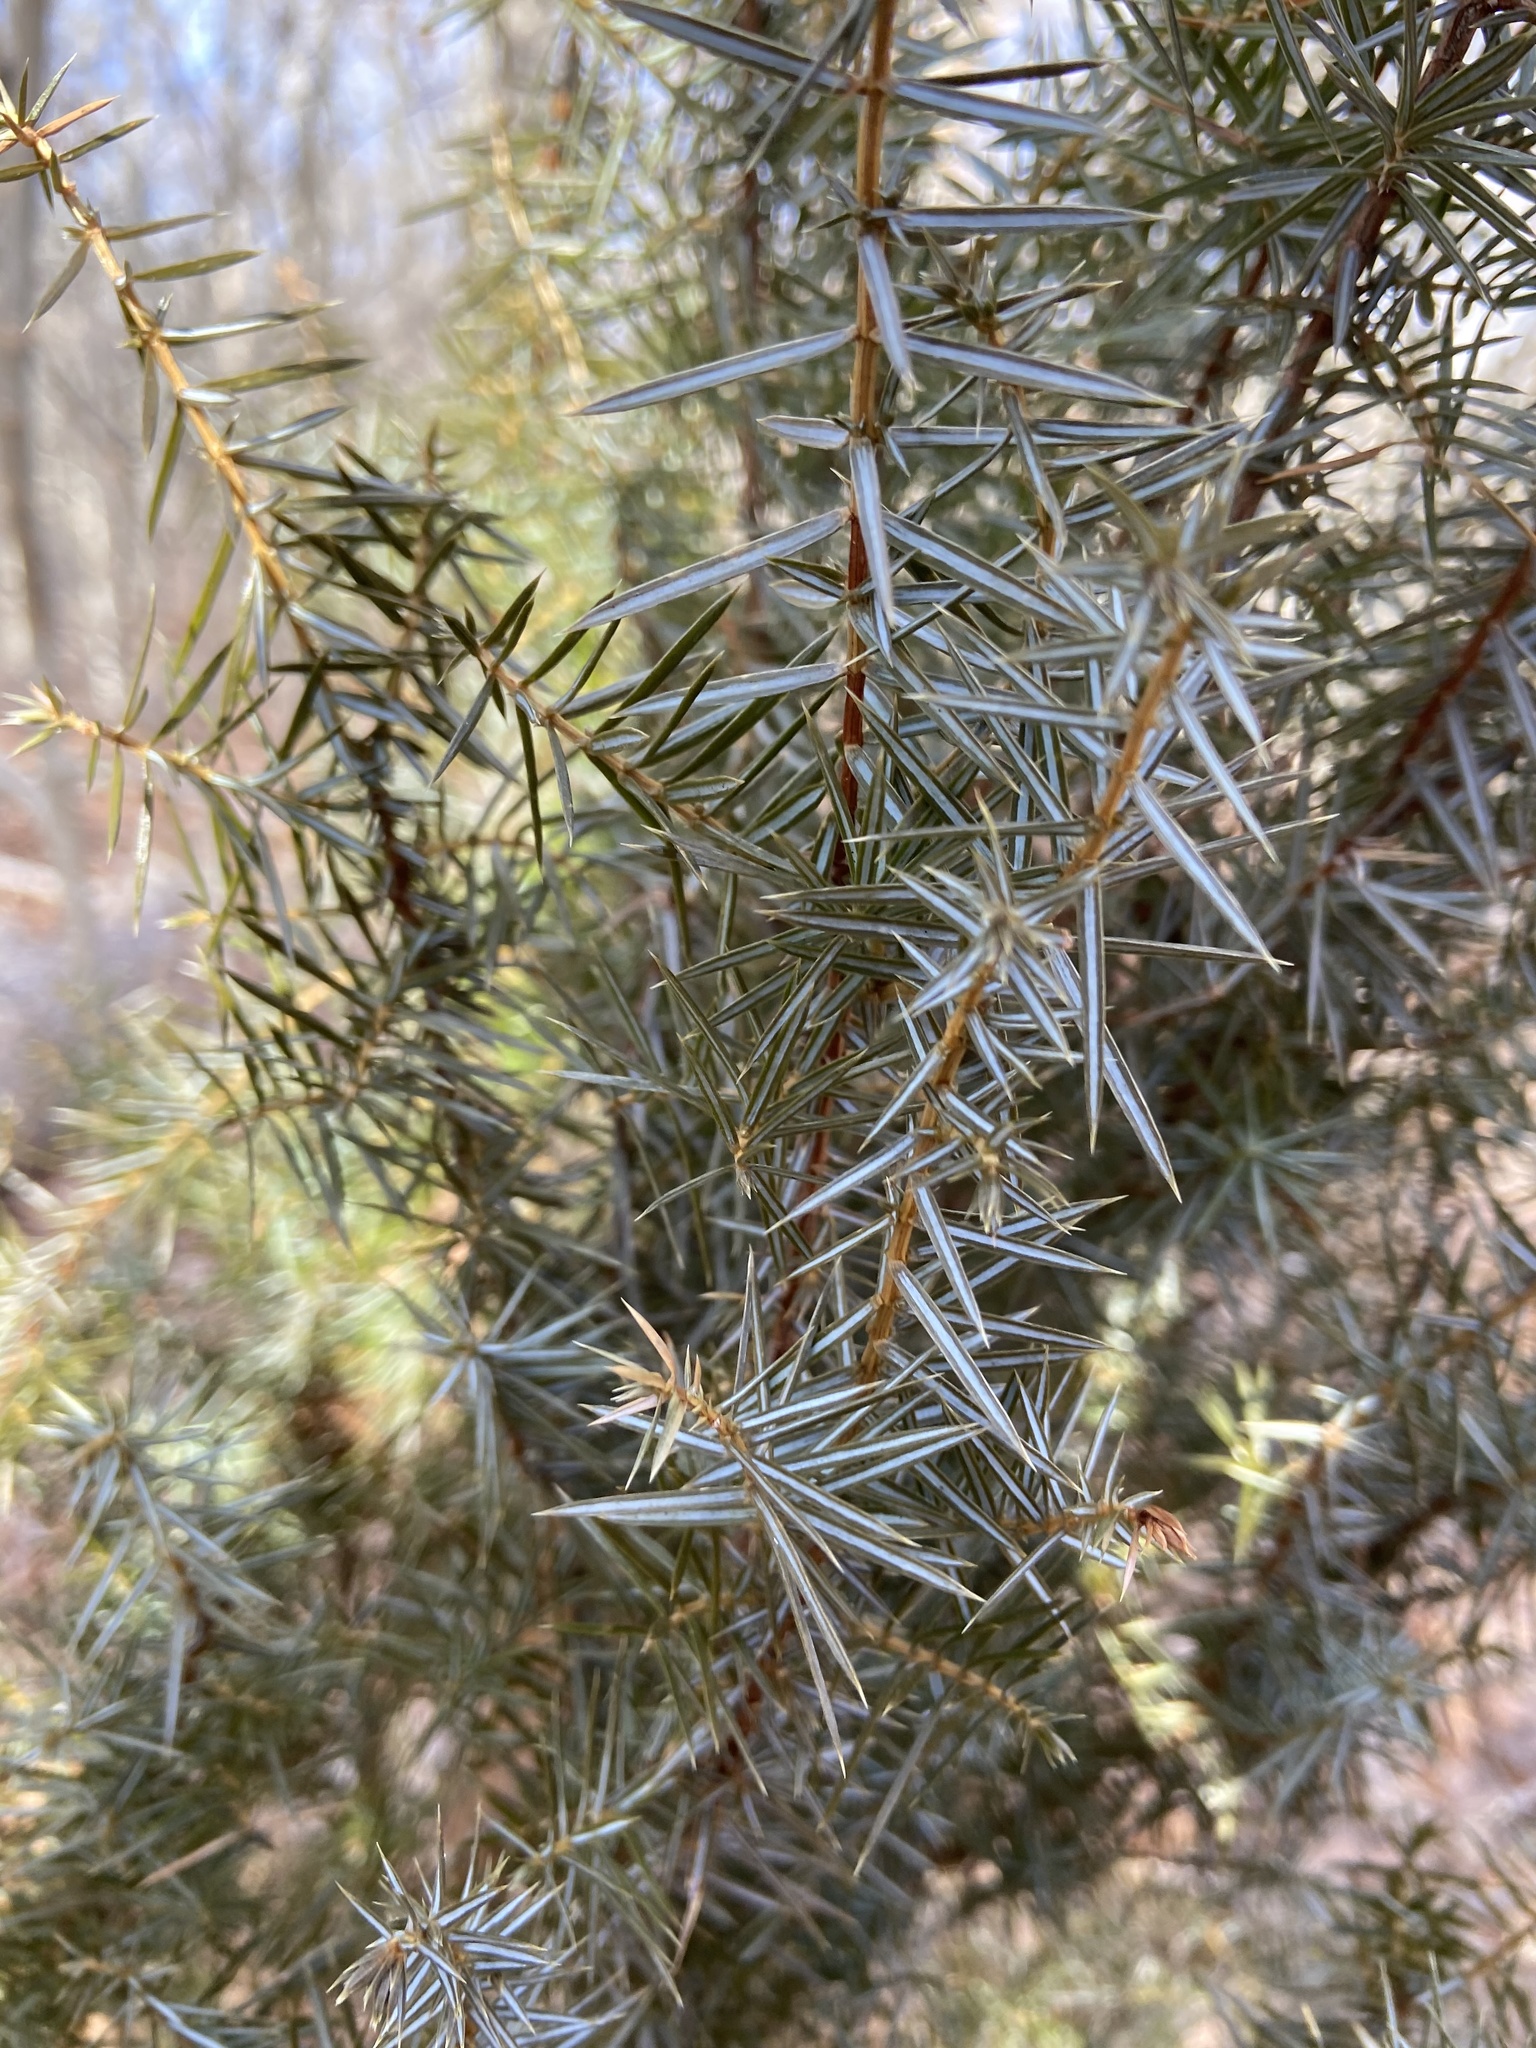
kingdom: Plantae
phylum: Tracheophyta
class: Pinopsida
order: Pinales
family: Cupressaceae
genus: Juniperus
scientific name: Juniperus communis
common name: Common juniper
